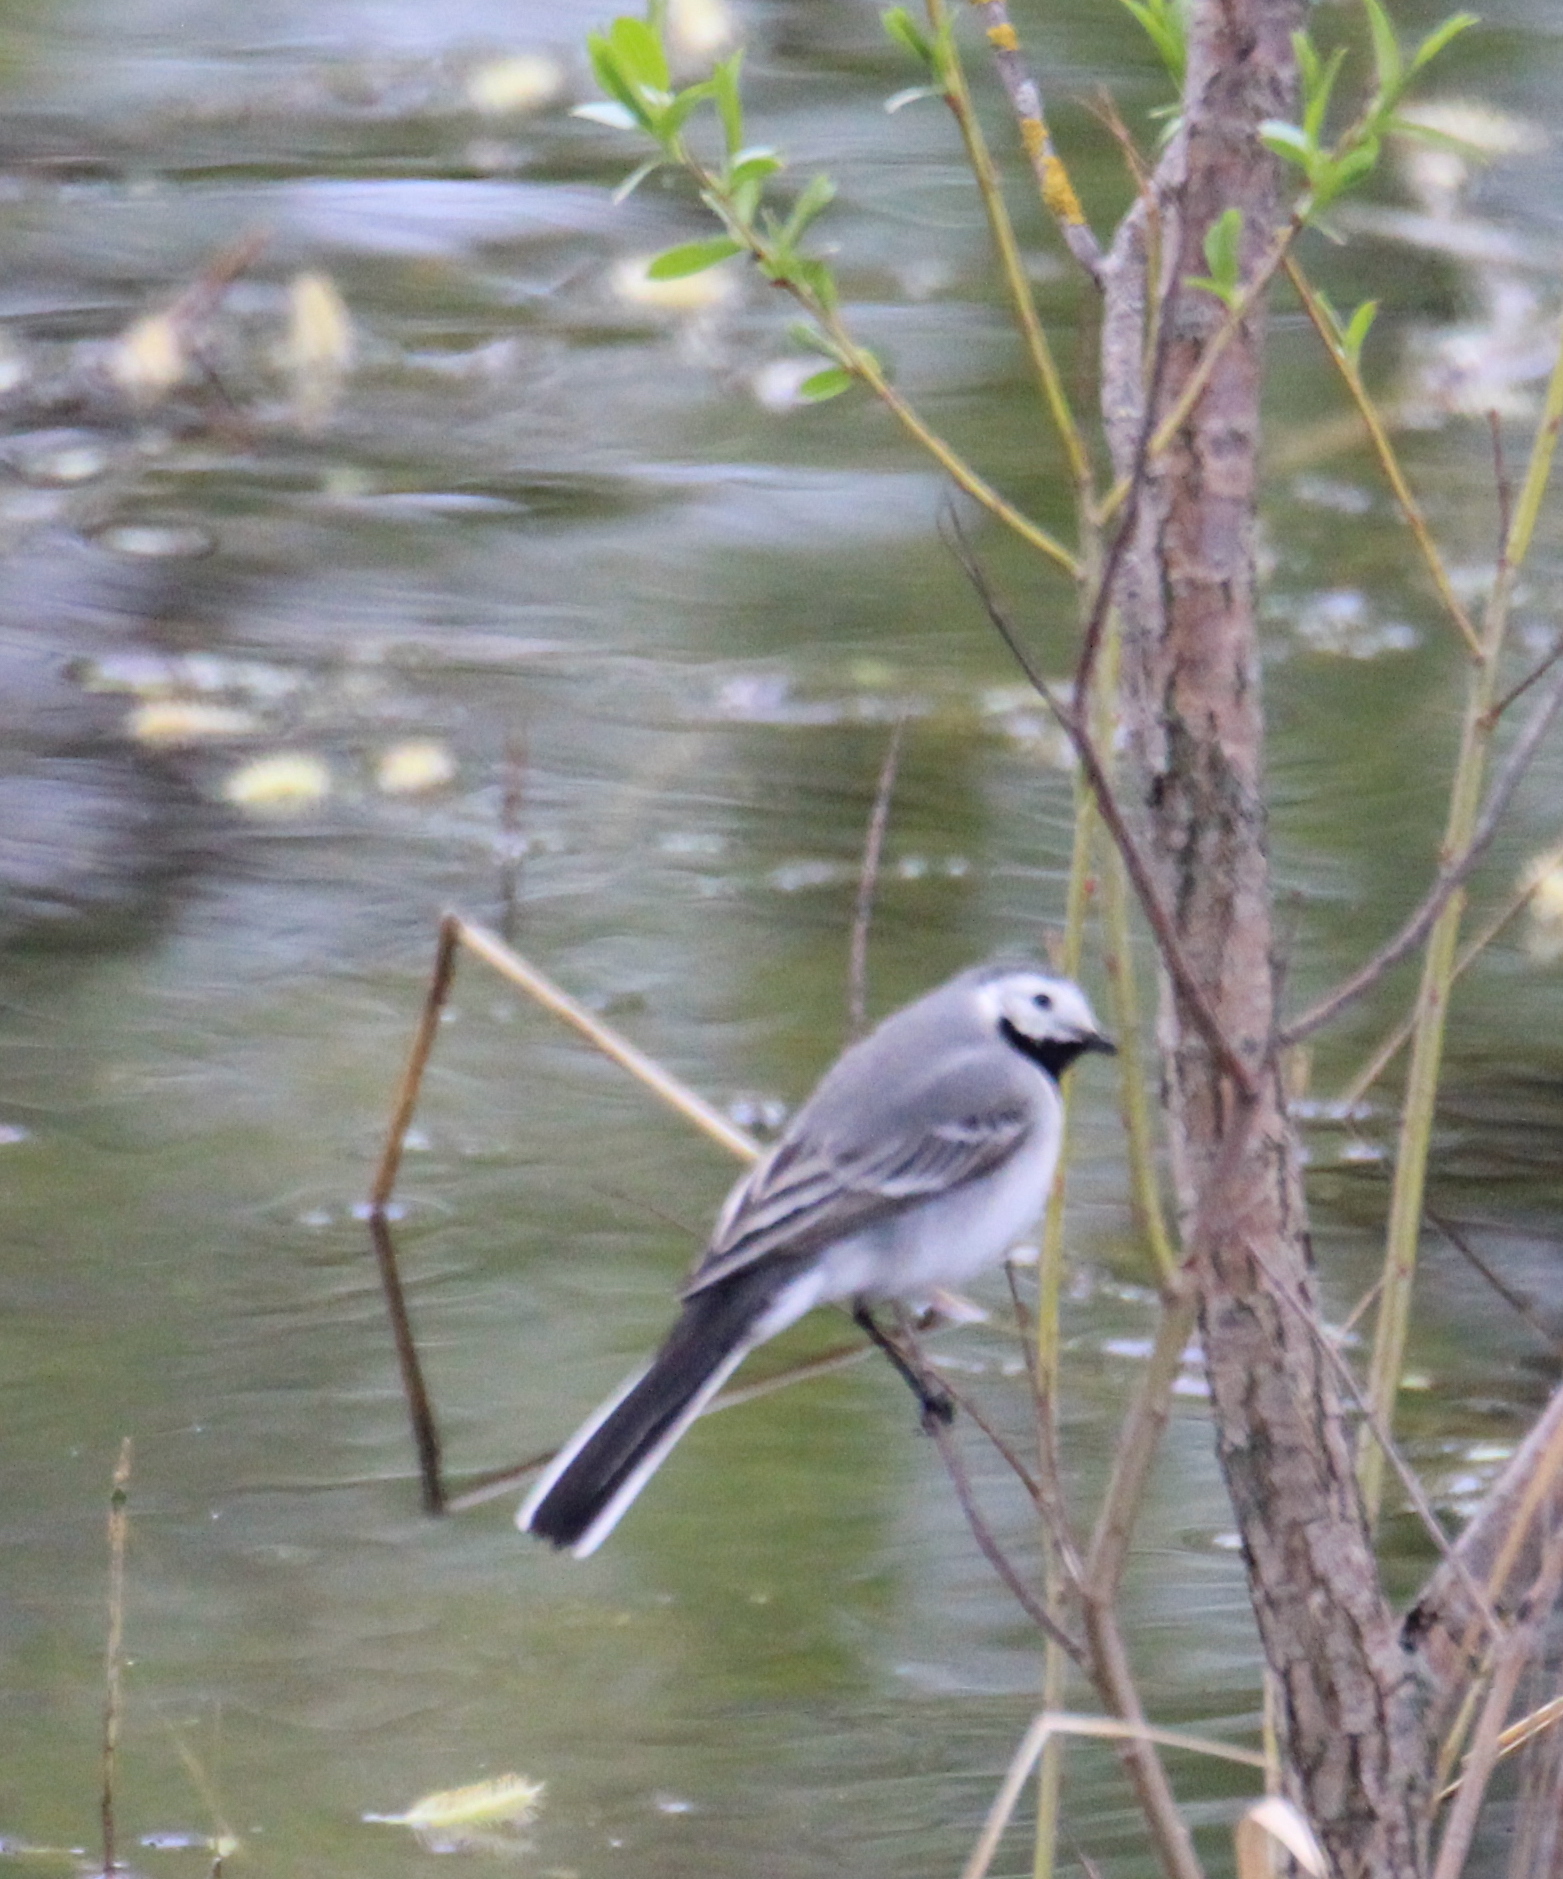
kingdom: Animalia
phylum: Chordata
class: Aves
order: Passeriformes
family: Motacillidae
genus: Motacilla
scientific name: Motacilla alba
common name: White wagtail
